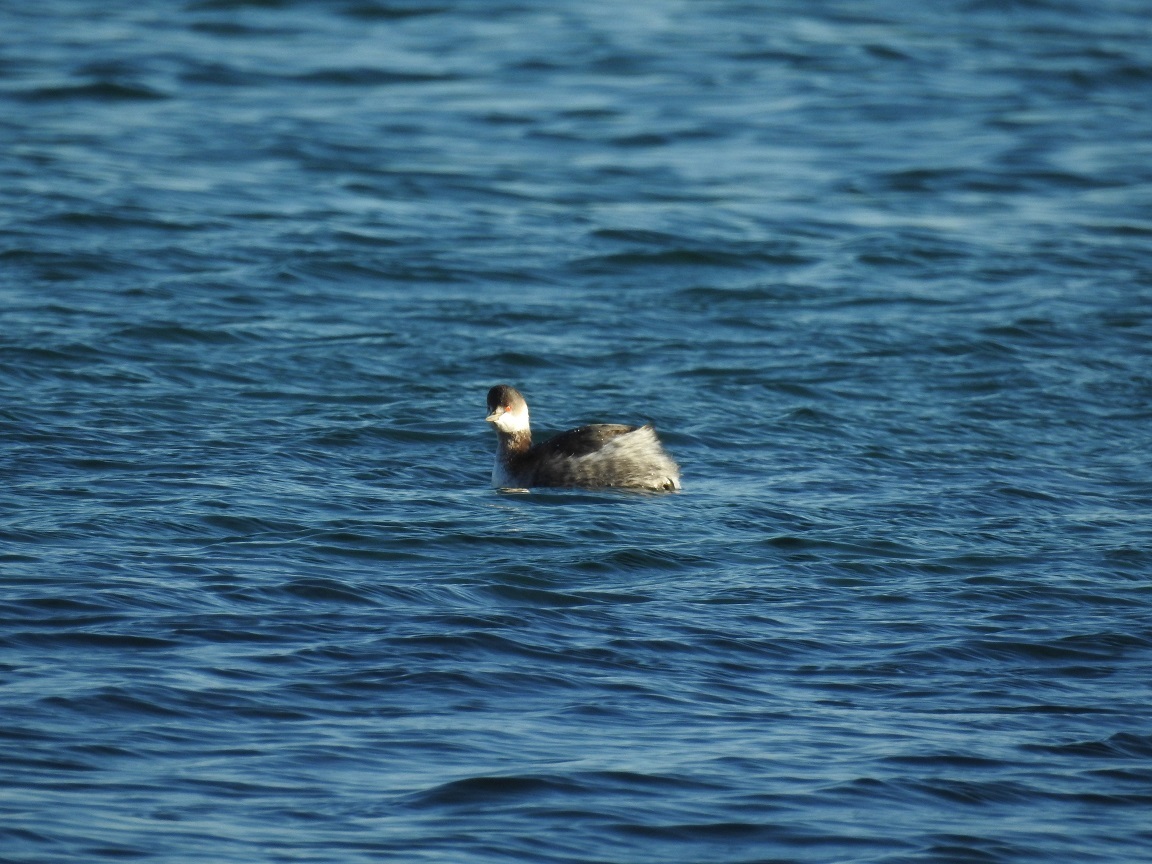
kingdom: Animalia
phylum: Chordata
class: Aves
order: Podicipediformes
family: Podicipedidae
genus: Podiceps
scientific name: Podiceps nigricollis
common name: Black-necked grebe
